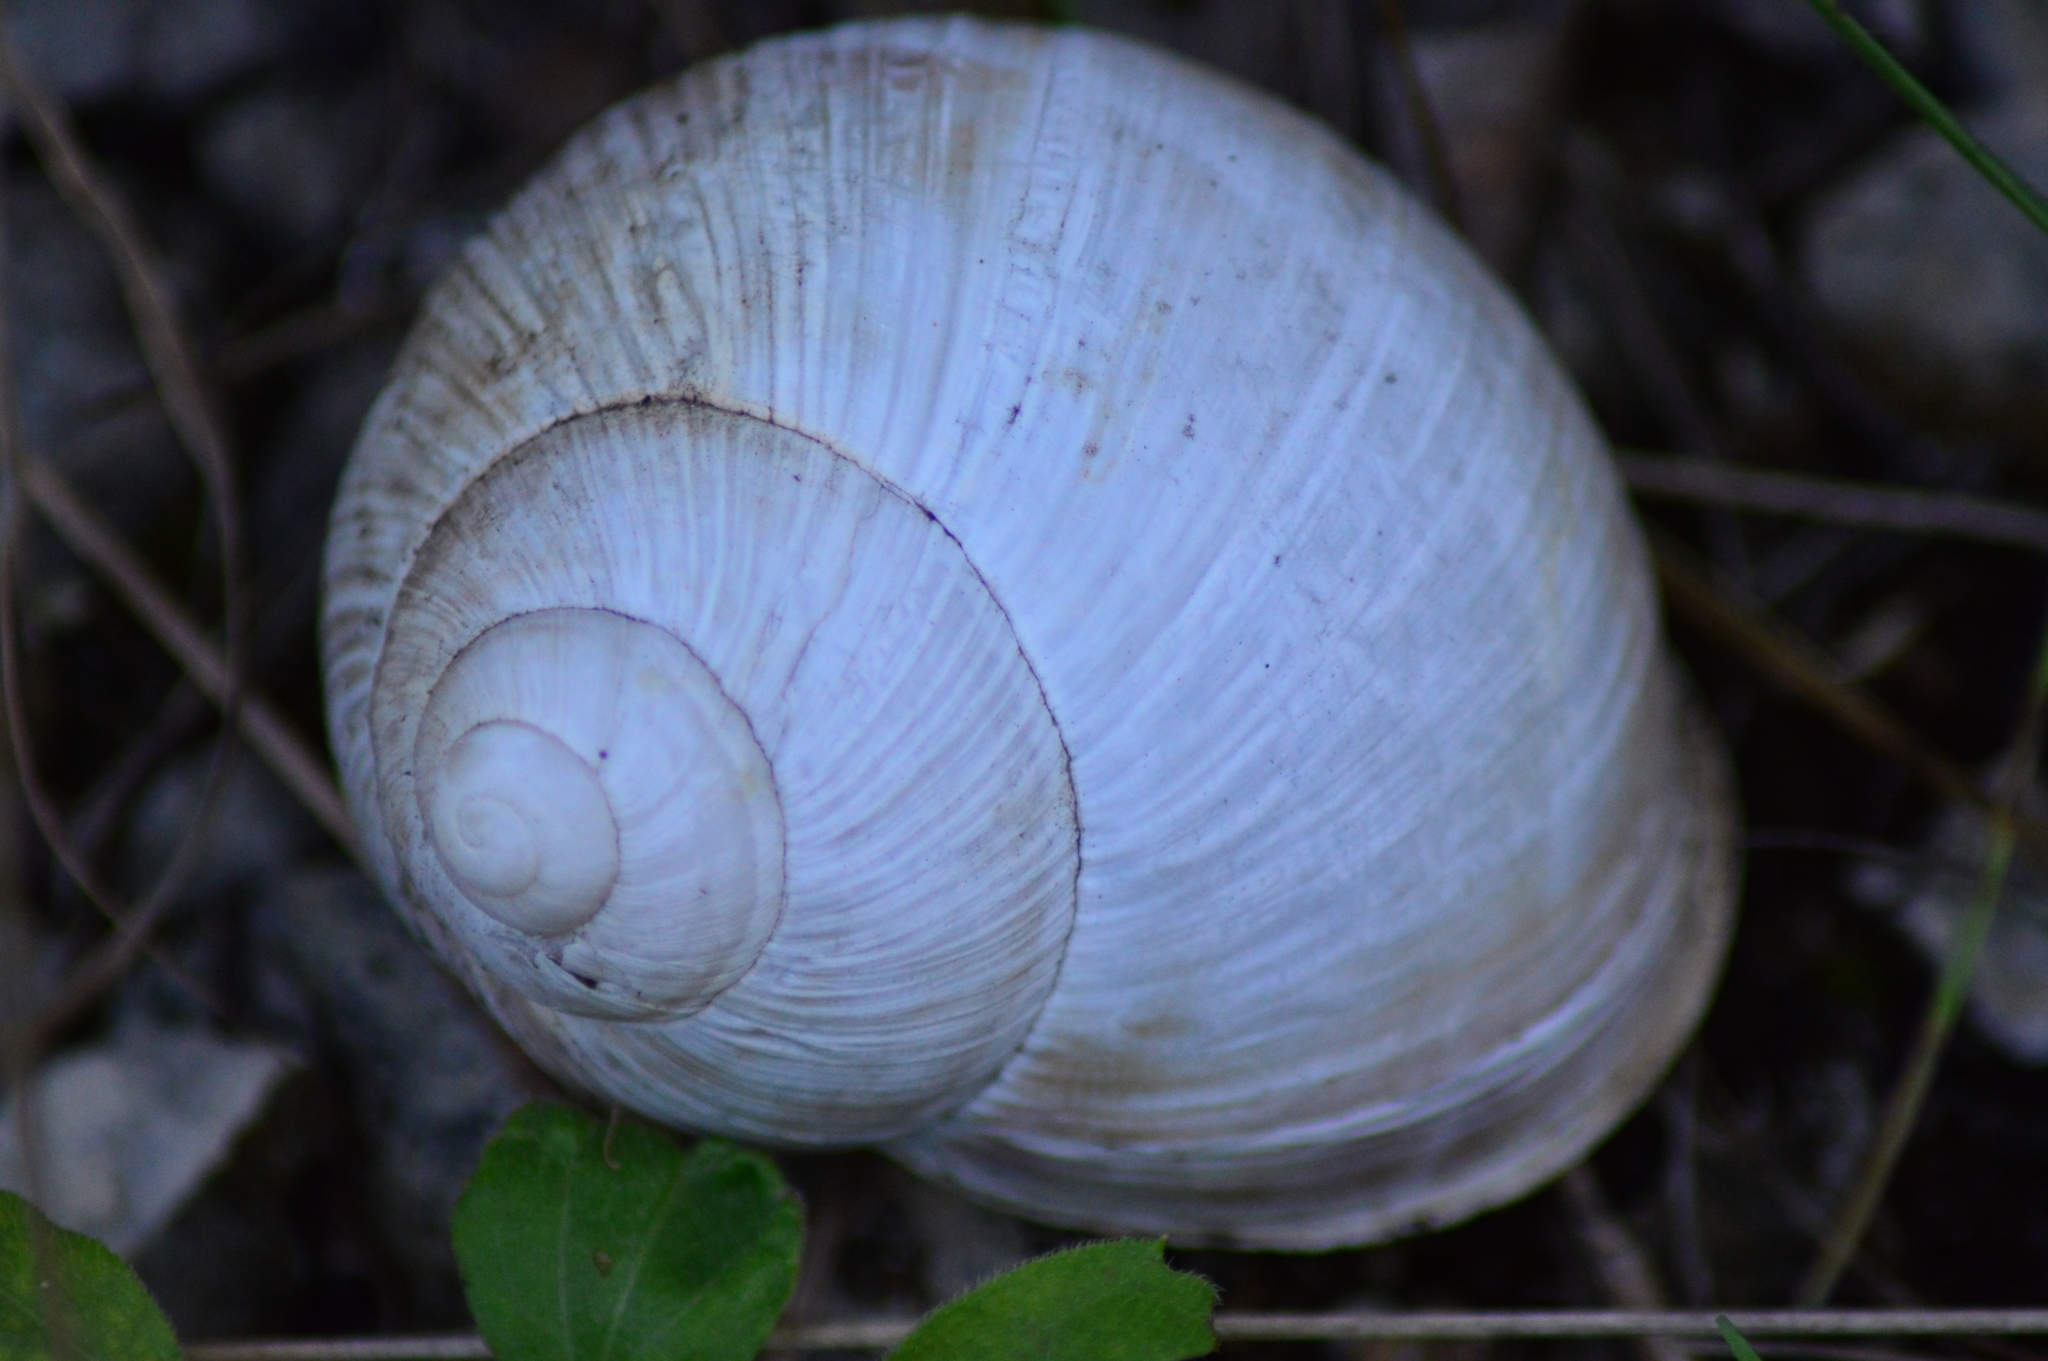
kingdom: Animalia
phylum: Mollusca
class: Gastropoda
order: Stylommatophora
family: Helicidae
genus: Helix
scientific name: Helix pomatia
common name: Roman snail
